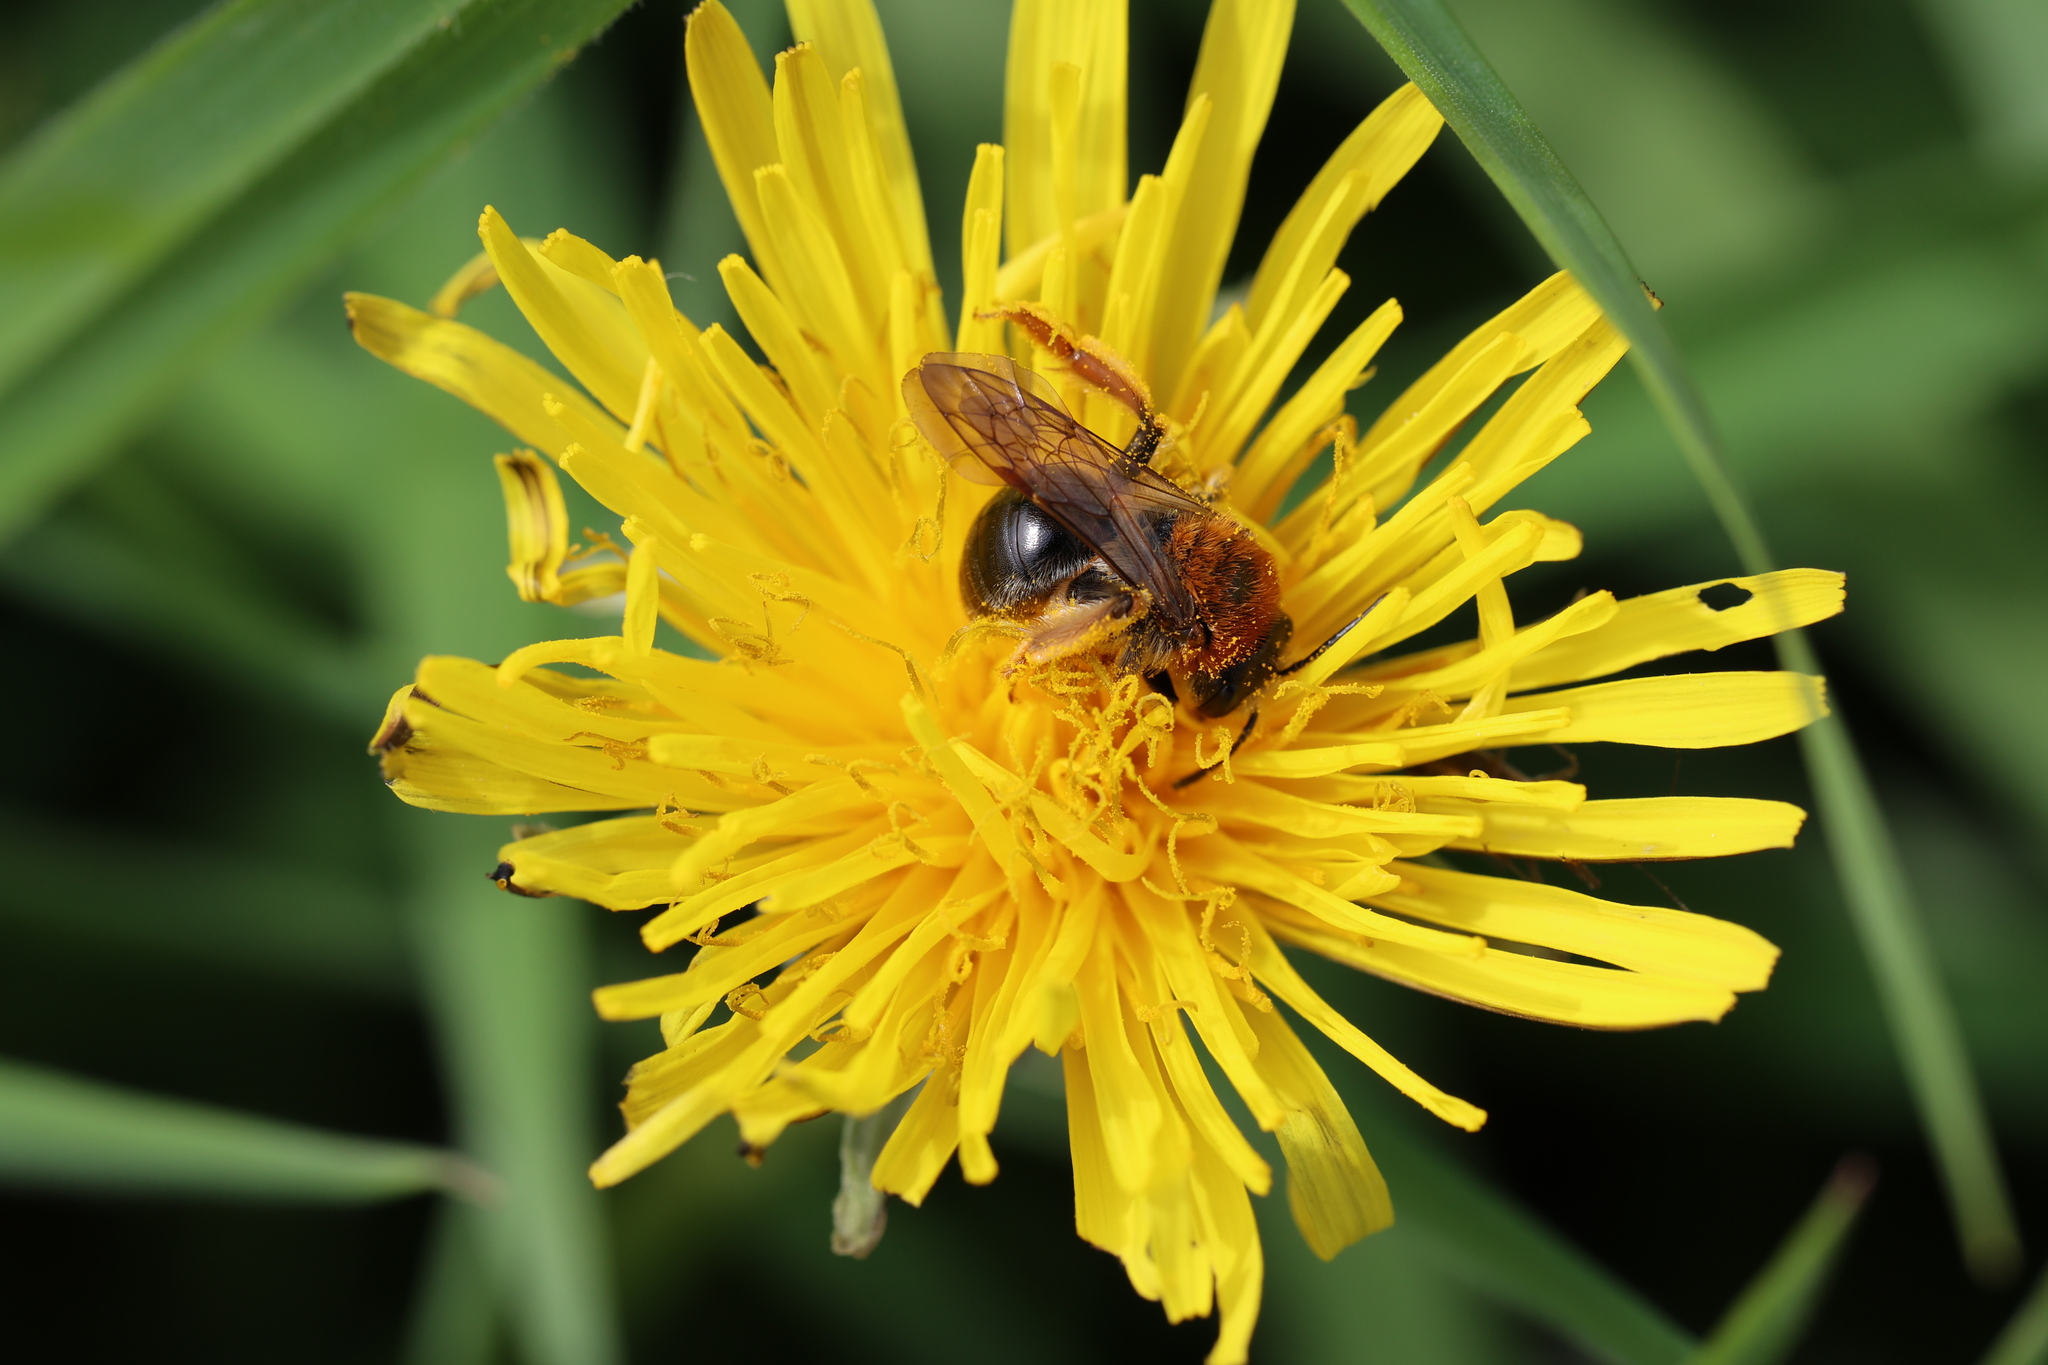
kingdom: Animalia
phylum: Arthropoda
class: Insecta
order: Hymenoptera
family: Andrenidae
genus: Andrena
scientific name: Andrena haemorrhoa
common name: Early mining bee
